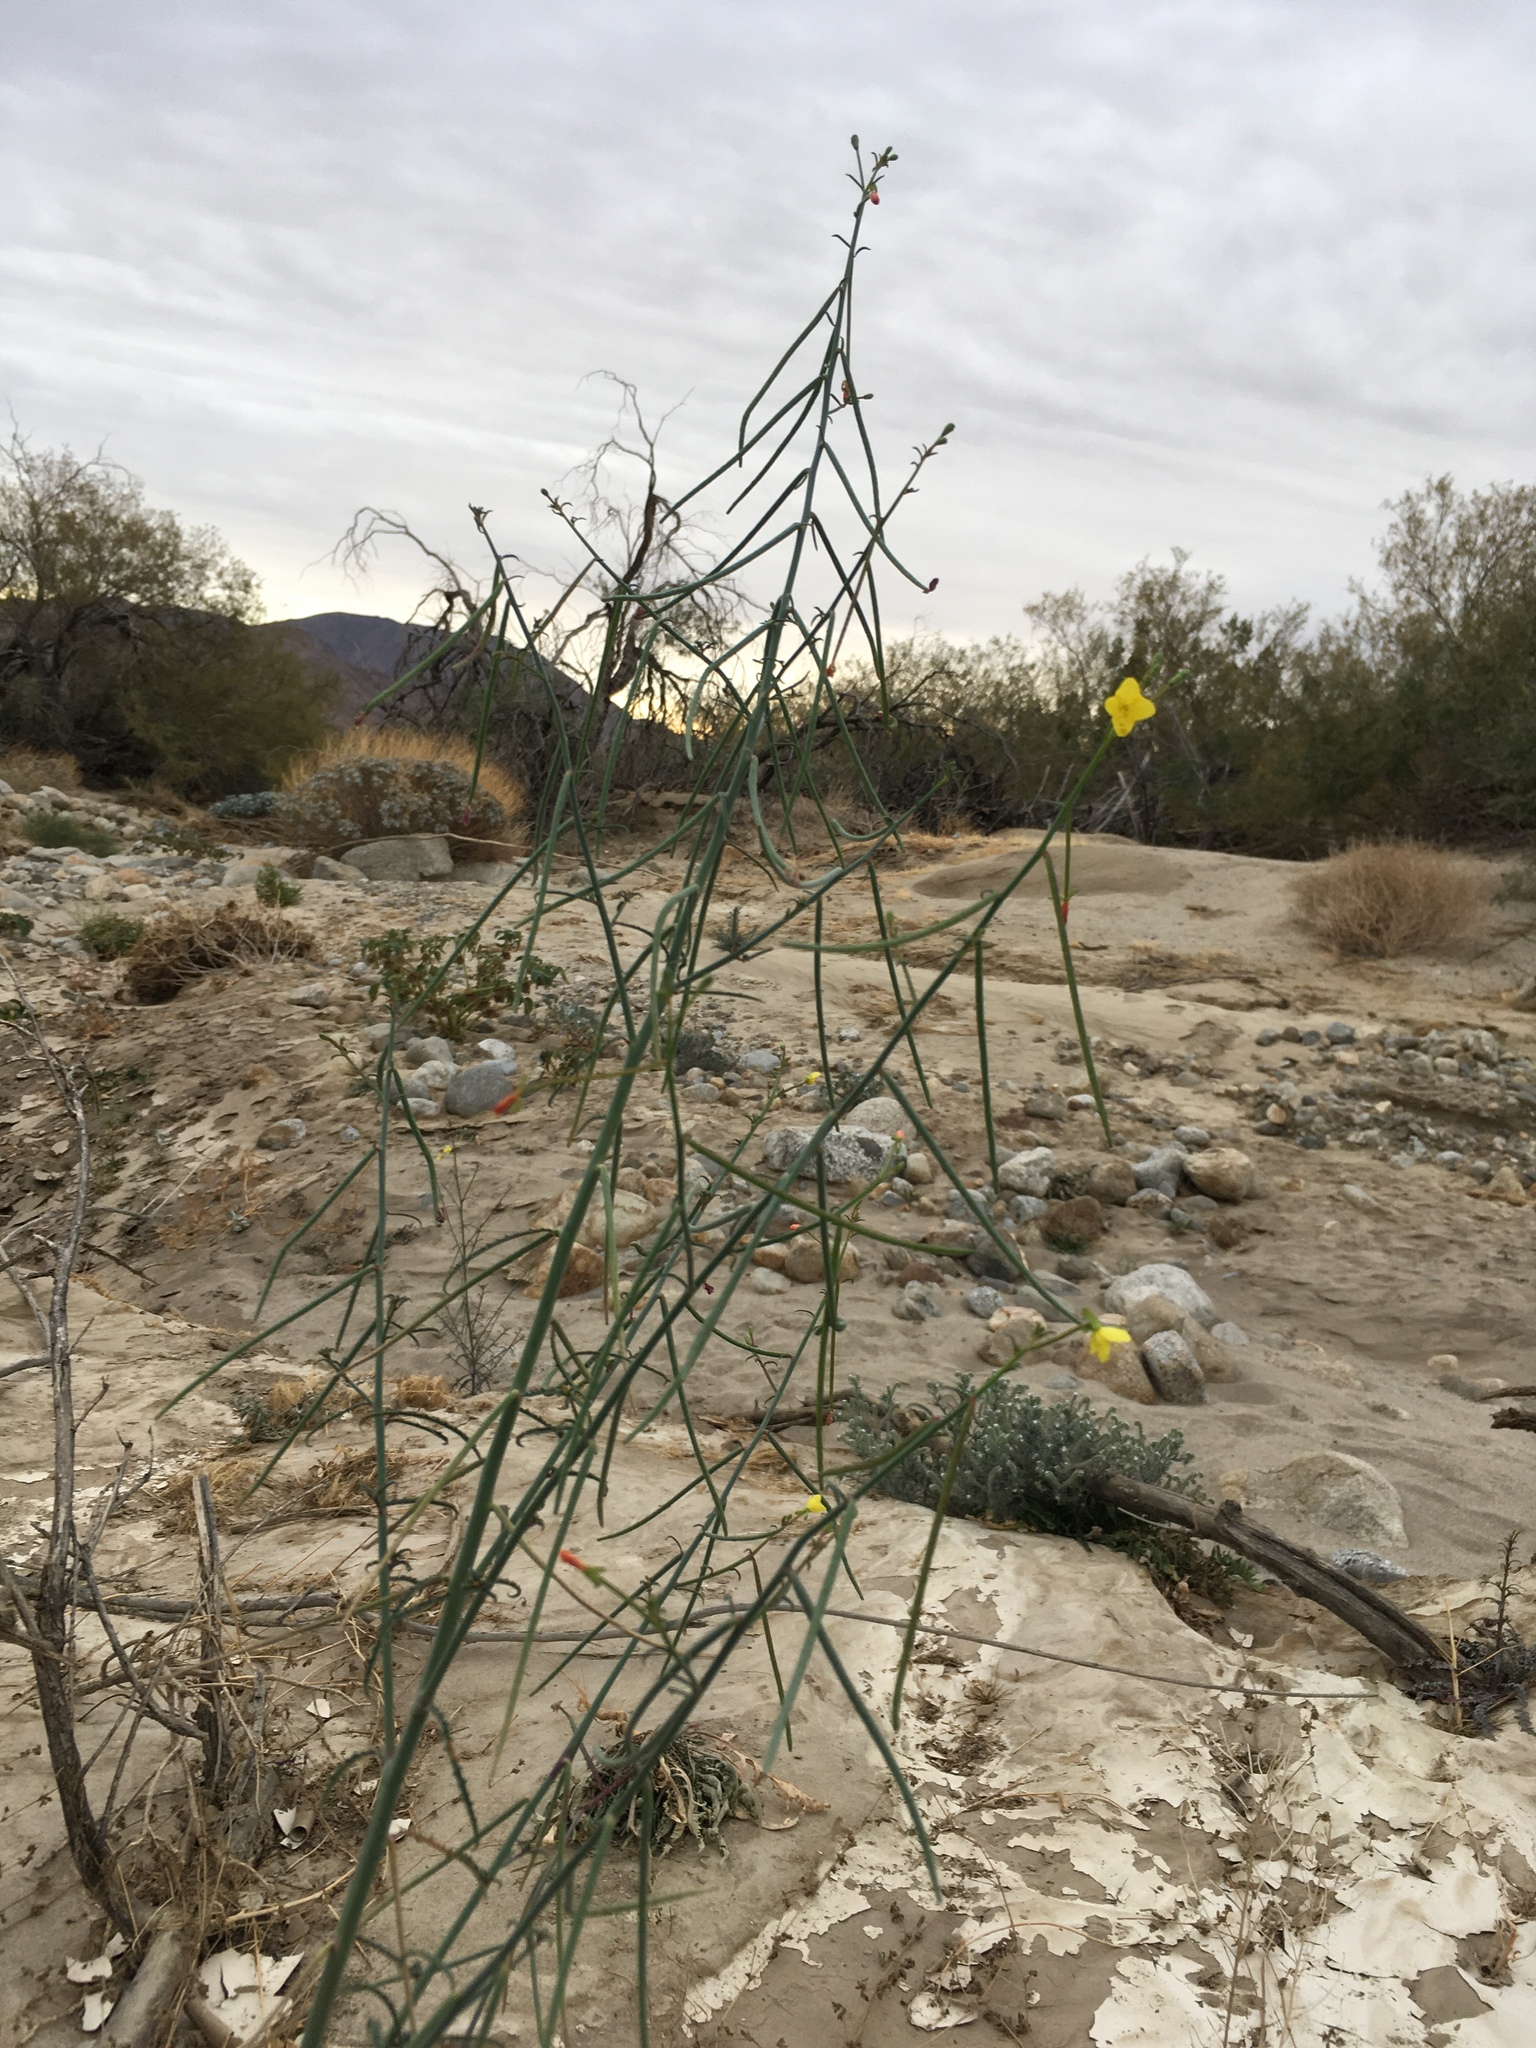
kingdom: Plantae
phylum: Tracheophyta
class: Magnoliopsida
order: Myrtales
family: Onagraceae
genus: Eulobus
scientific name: Eulobus californicus
